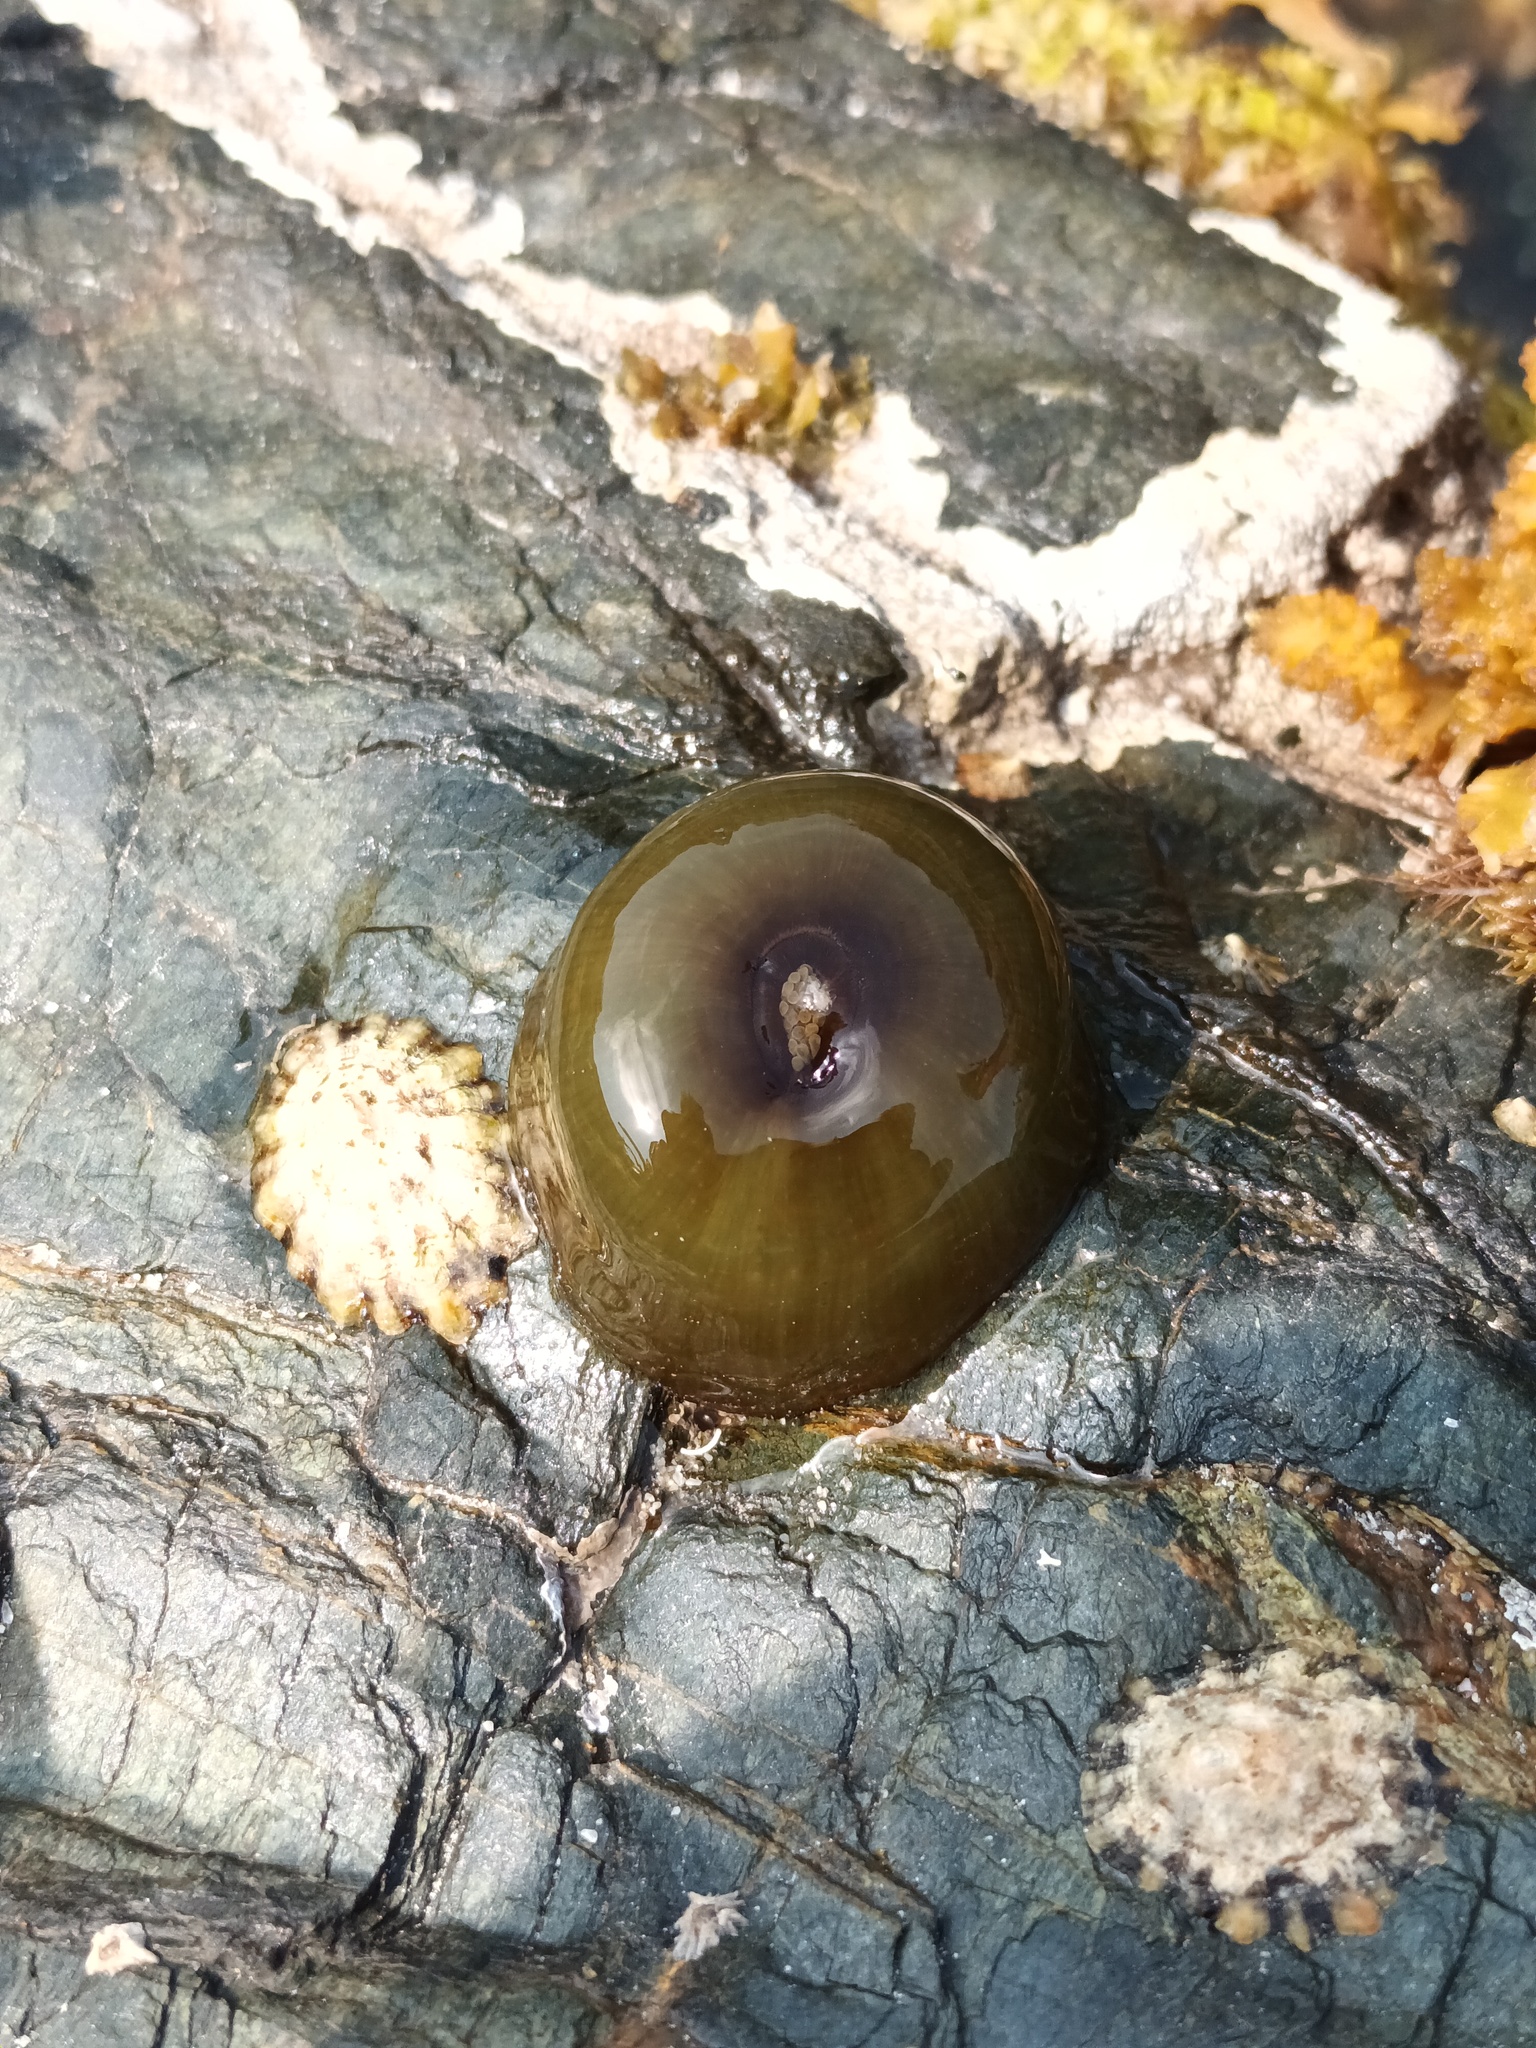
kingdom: Animalia
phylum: Cnidaria
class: Anthozoa
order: Actiniaria
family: Actiniidae
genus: Actinia
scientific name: Actinia equina
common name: Beadlet anemone
